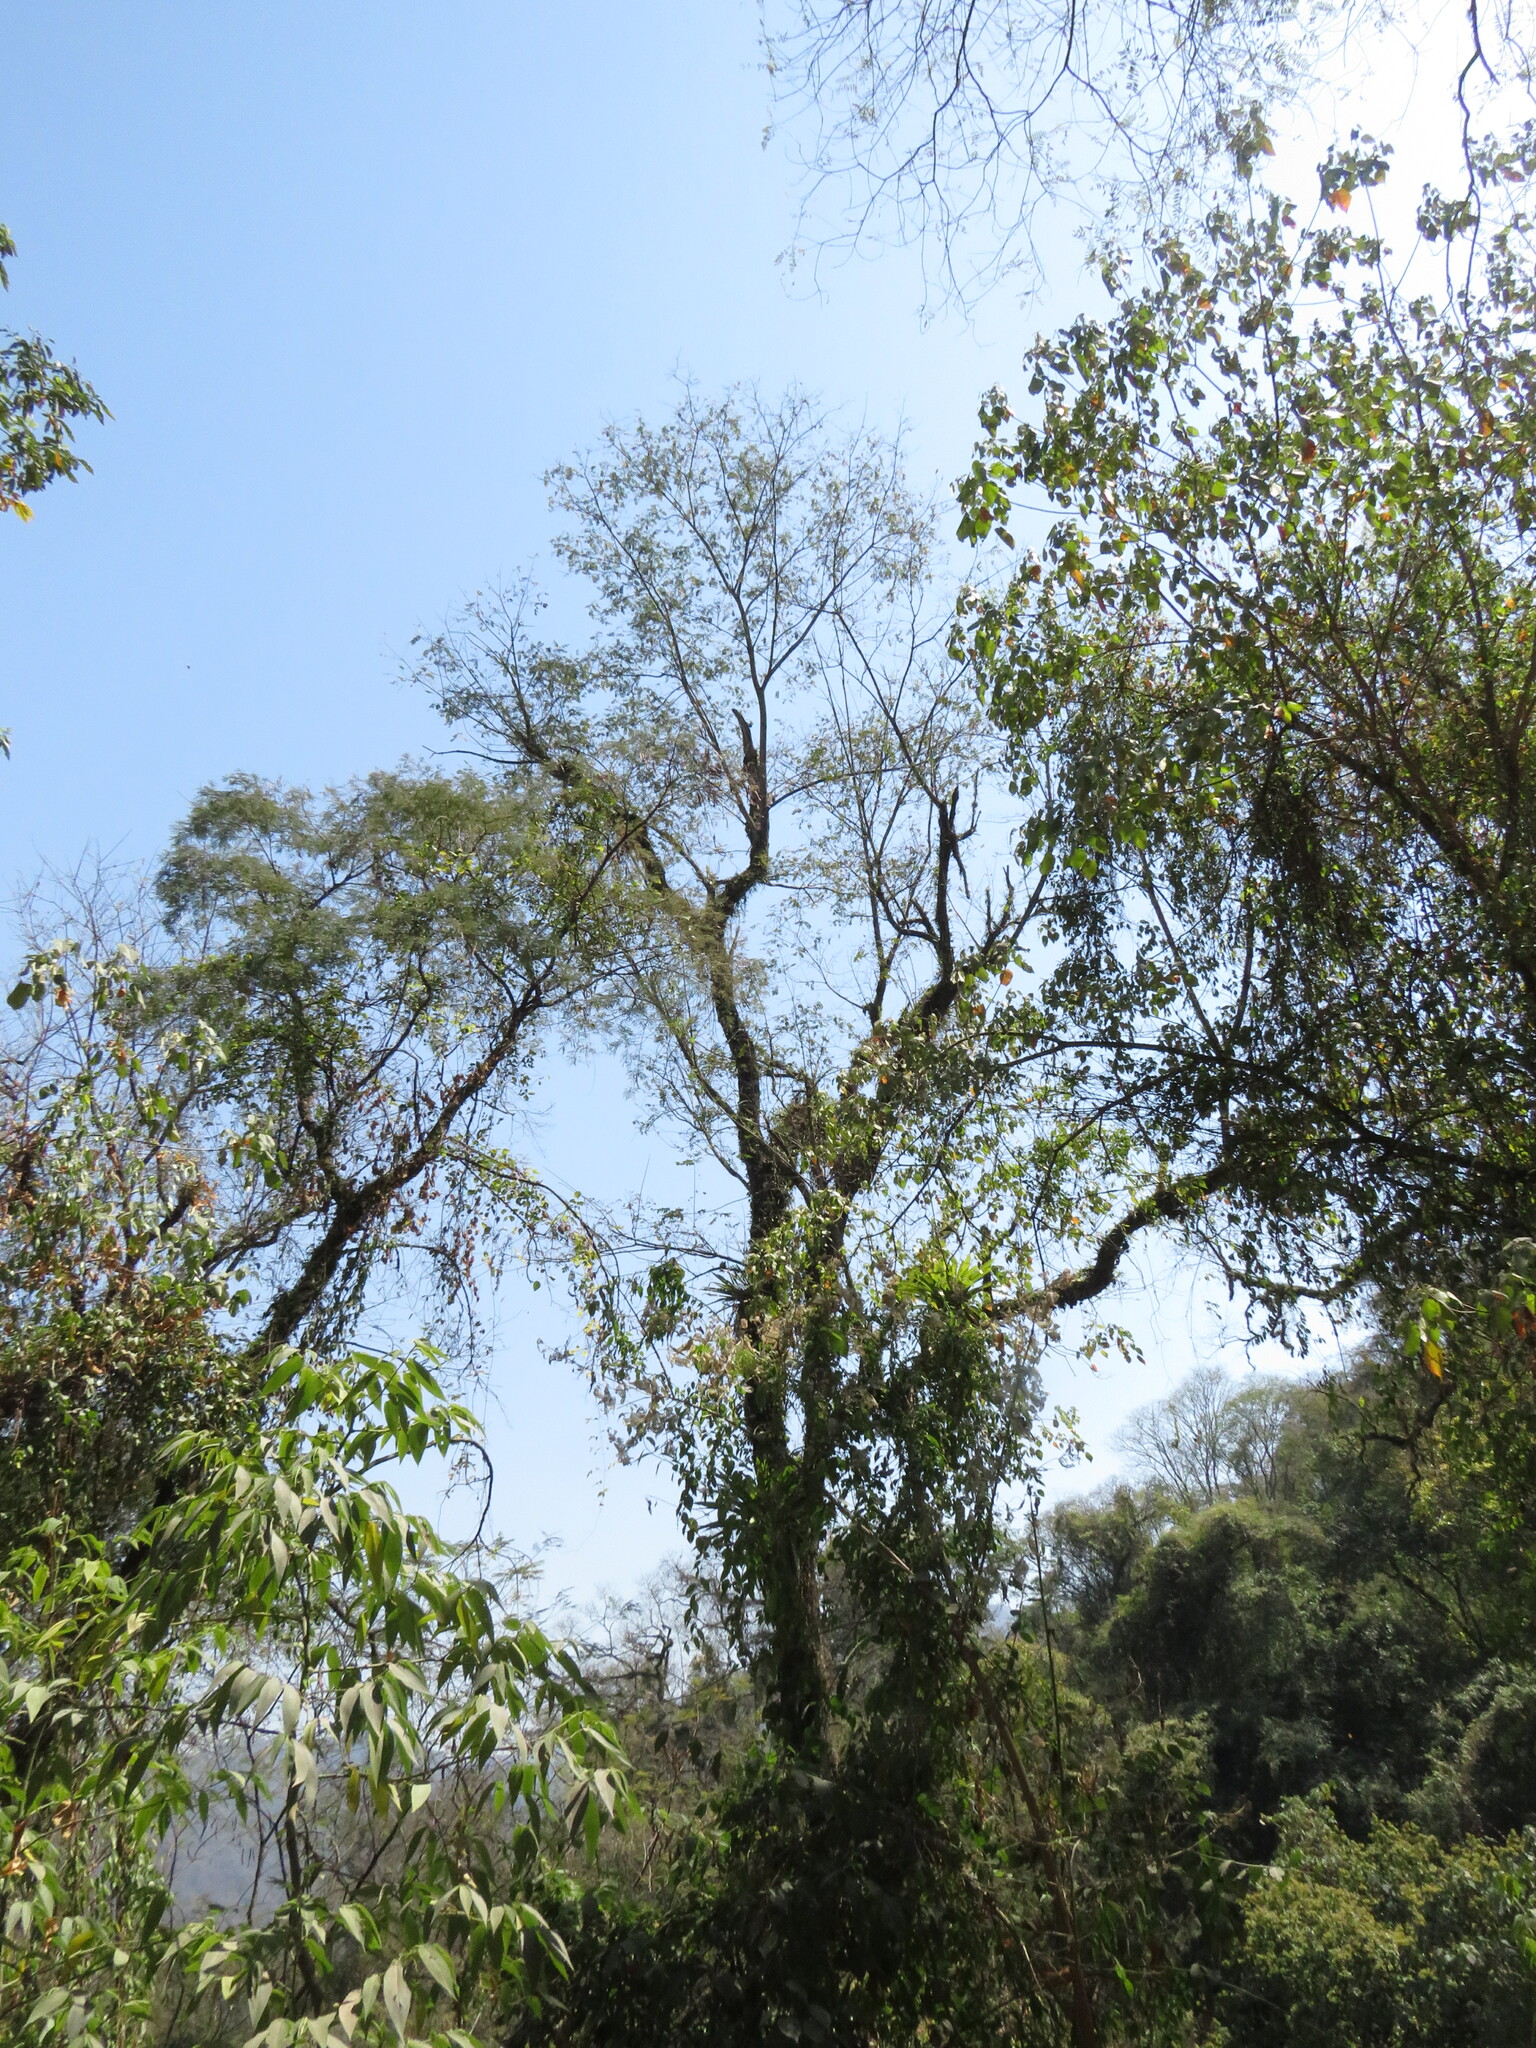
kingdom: Plantae
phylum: Tracheophyta
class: Magnoliopsida
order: Fabales
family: Fabaceae
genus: Tipuana
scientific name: Tipuana tipu
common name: Tiputree
